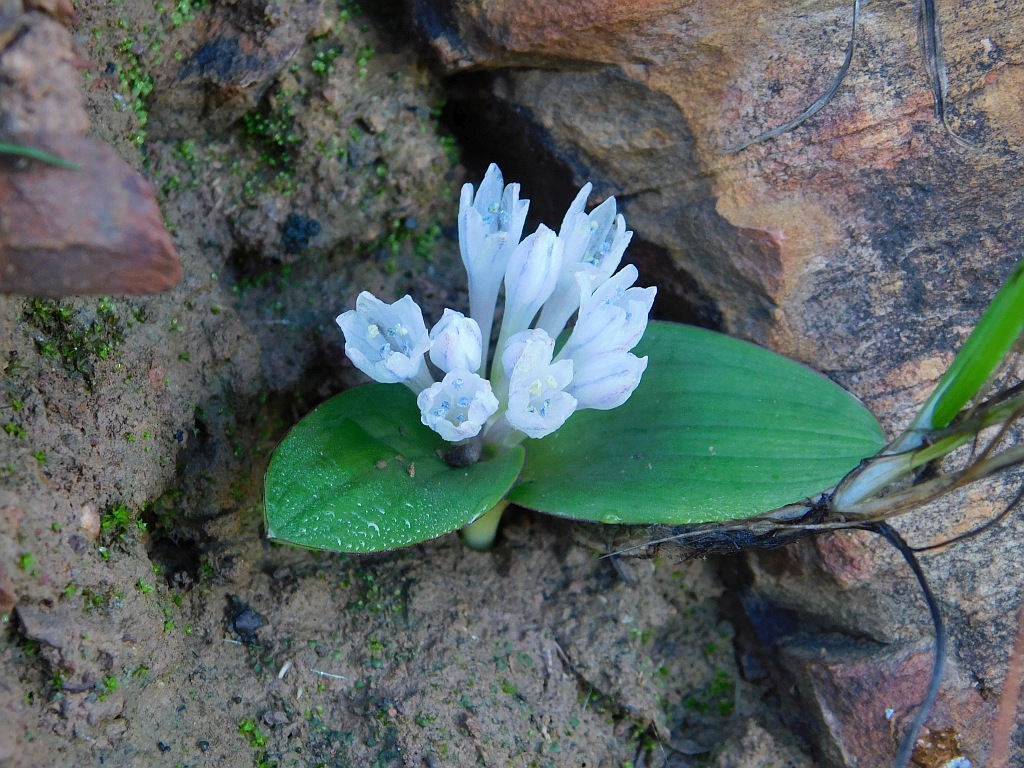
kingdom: Plantae
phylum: Tracheophyta
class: Liliopsida
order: Asparagales
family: Asparagaceae
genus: Lachenalia
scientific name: Lachenalia ensifolia
